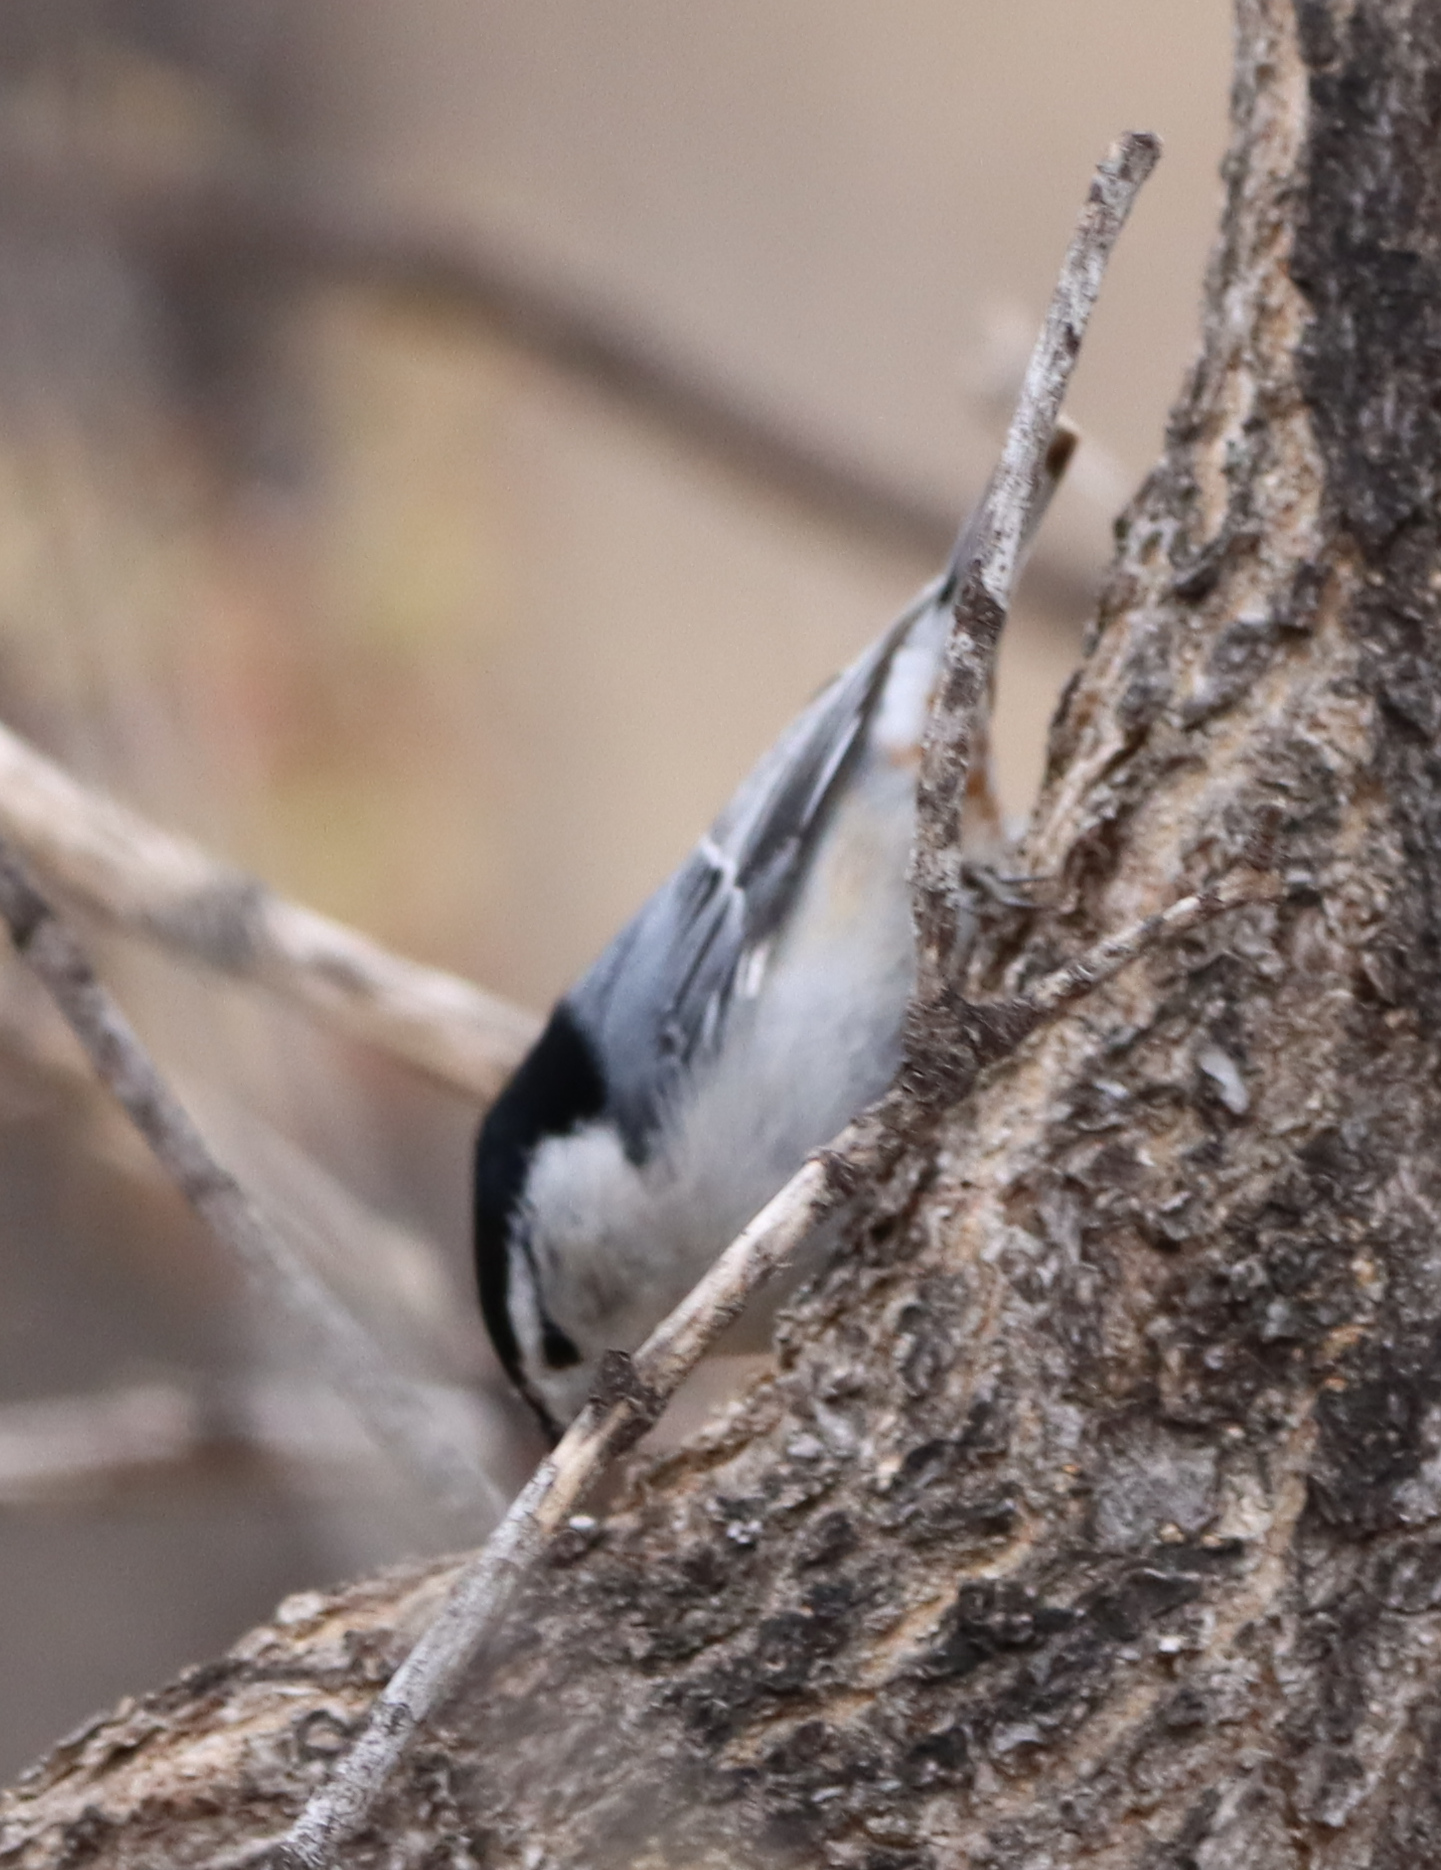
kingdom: Animalia
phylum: Chordata
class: Aves
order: Passeriformes
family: Sittidae
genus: Sitta
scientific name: Sitta carolinensis
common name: White-breasted nuthatch
